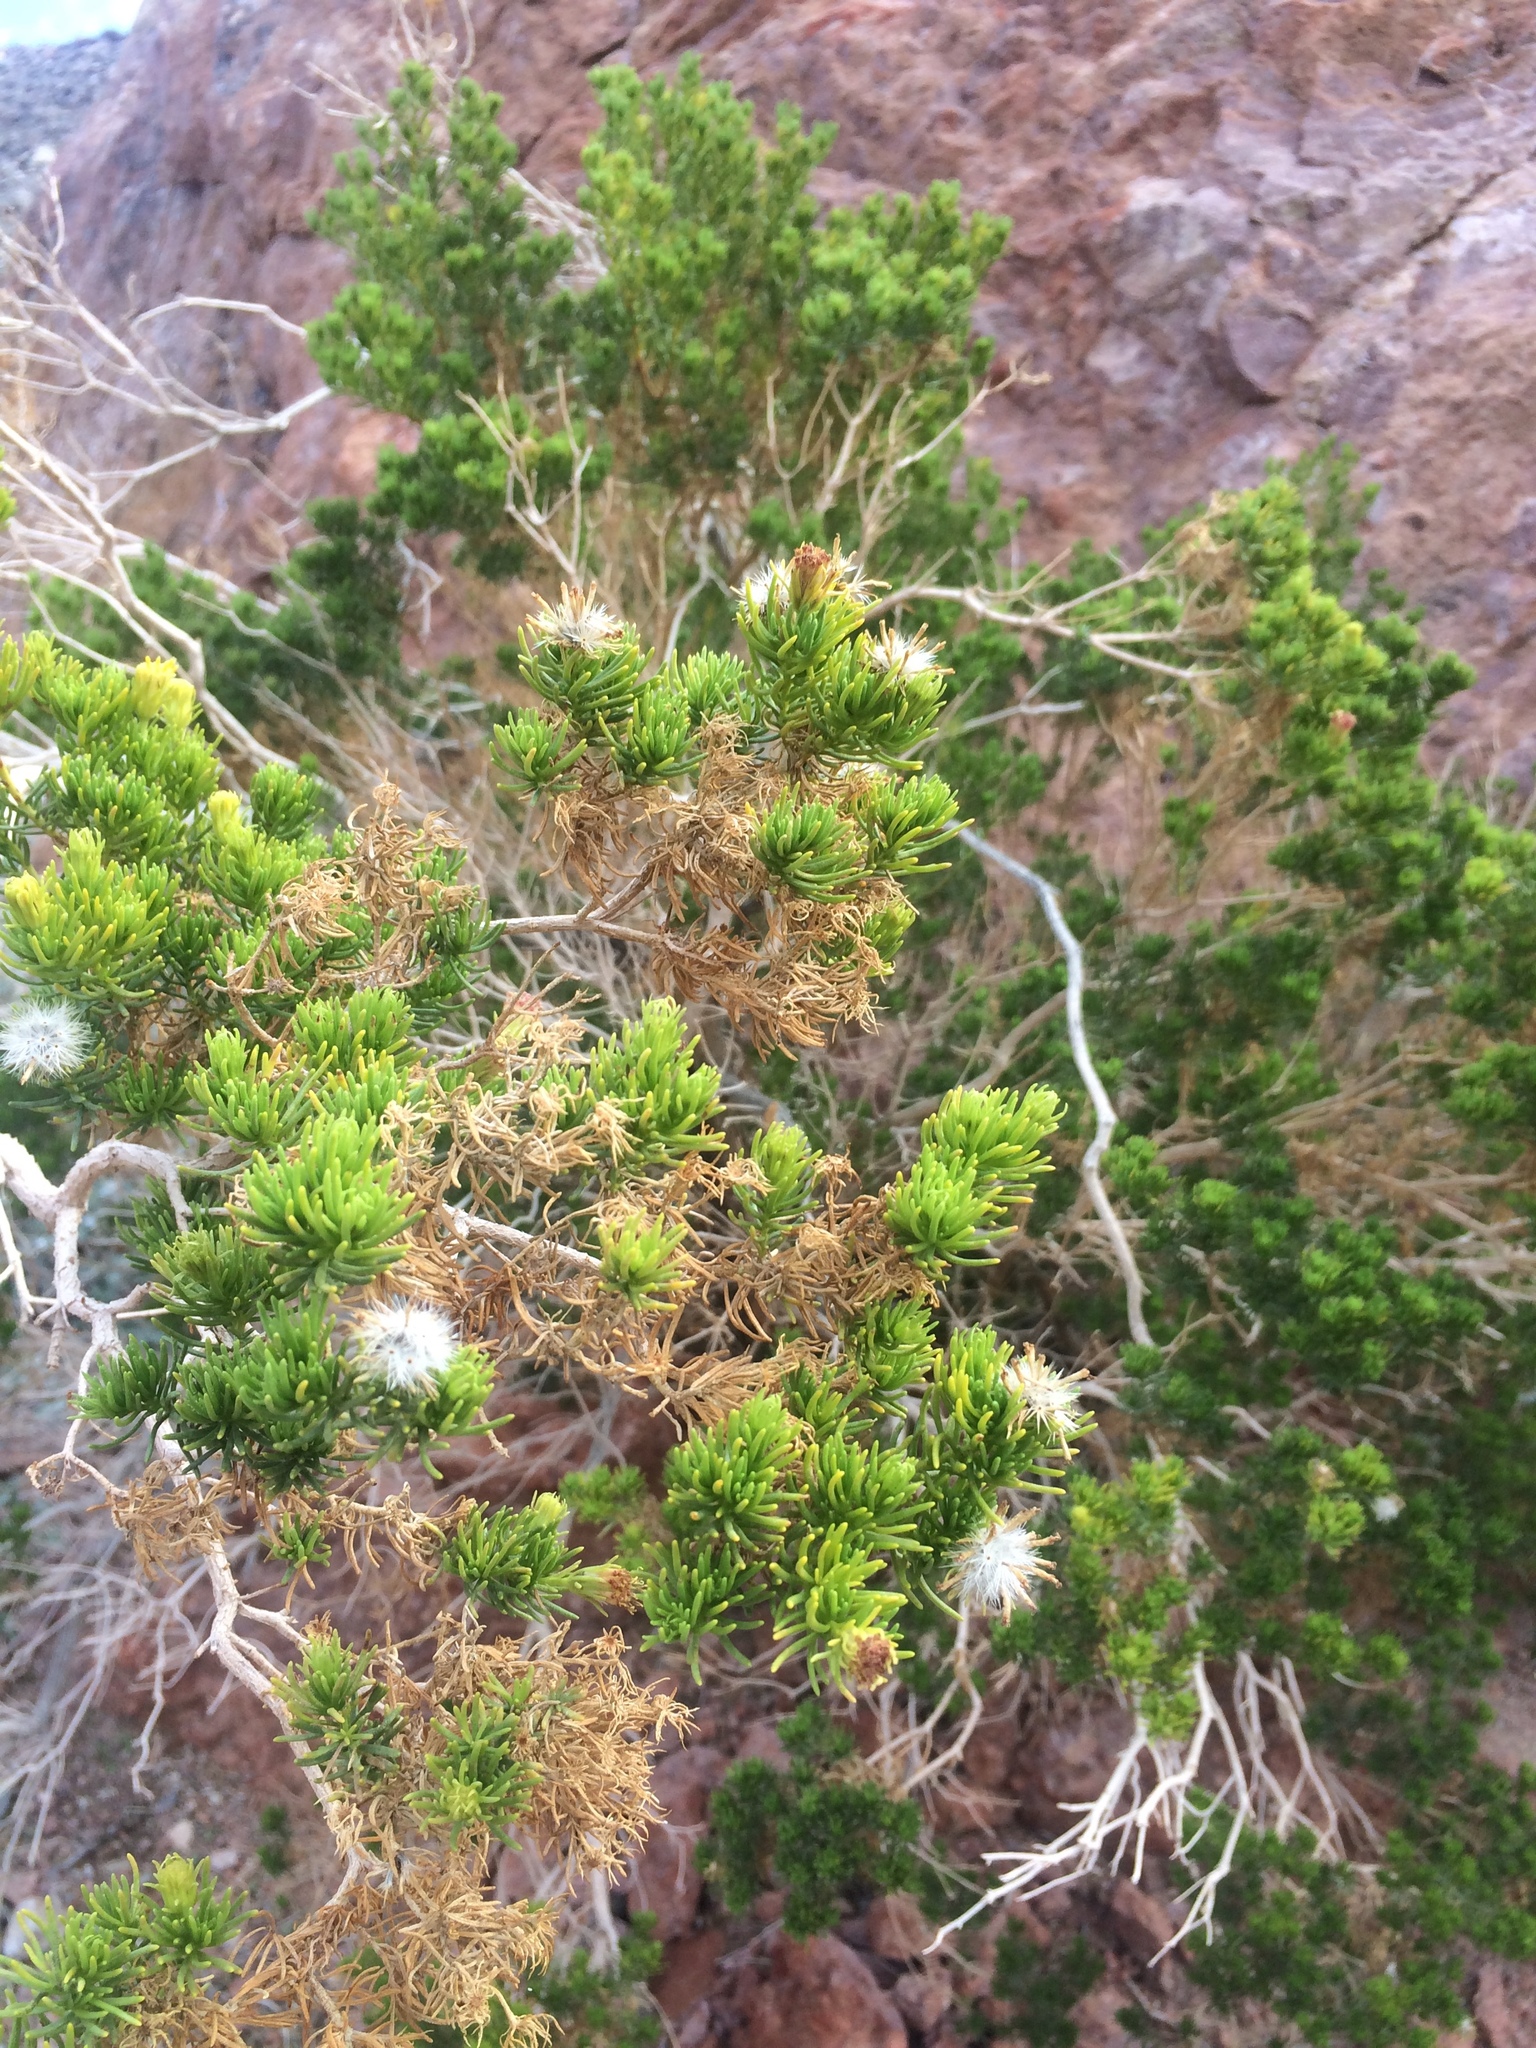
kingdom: Plantae
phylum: Tracheophyta
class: Magnoliopsida
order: Asterales
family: Asteraceae
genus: Peucephyllum
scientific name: Peucephyllum schottii
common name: Pygmy-cedar
